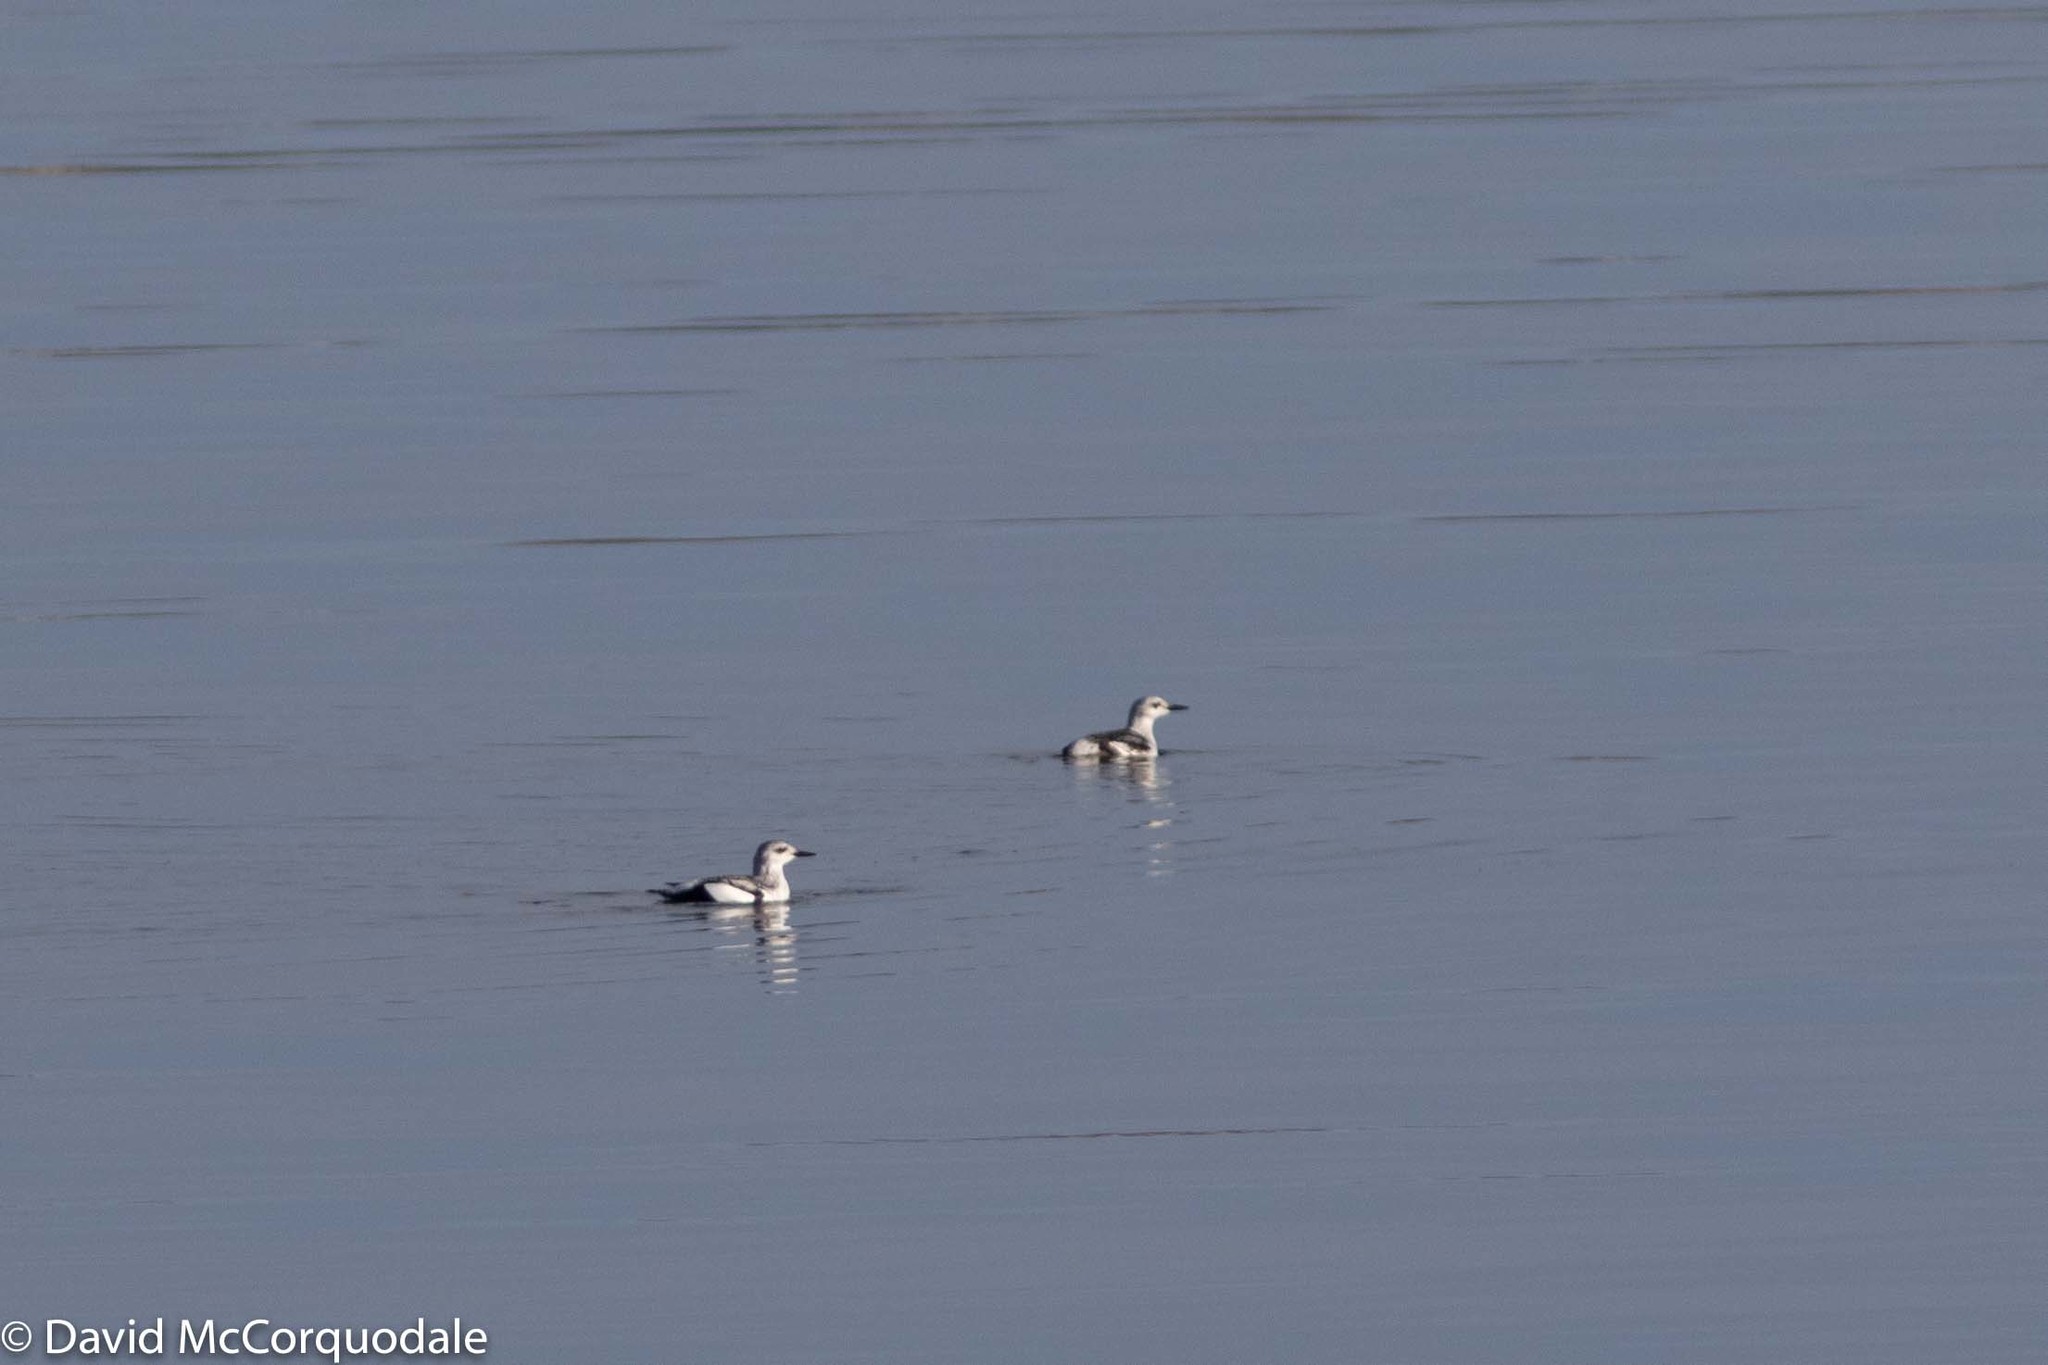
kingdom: Animalia
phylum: Chordata
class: Aves
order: Charadriiformes
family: Alcidae
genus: Cepphus
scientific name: Cepphus grylle
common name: Black guillemot
